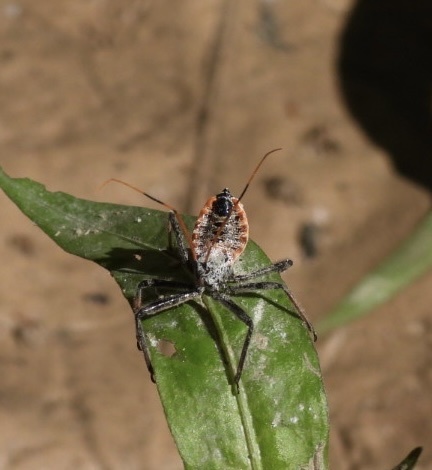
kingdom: Animalia
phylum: Arthropoda
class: Insecta
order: Hemiptera
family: Reduviidae
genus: Arilus
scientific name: Arilus cristatus
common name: North american wheel bug
